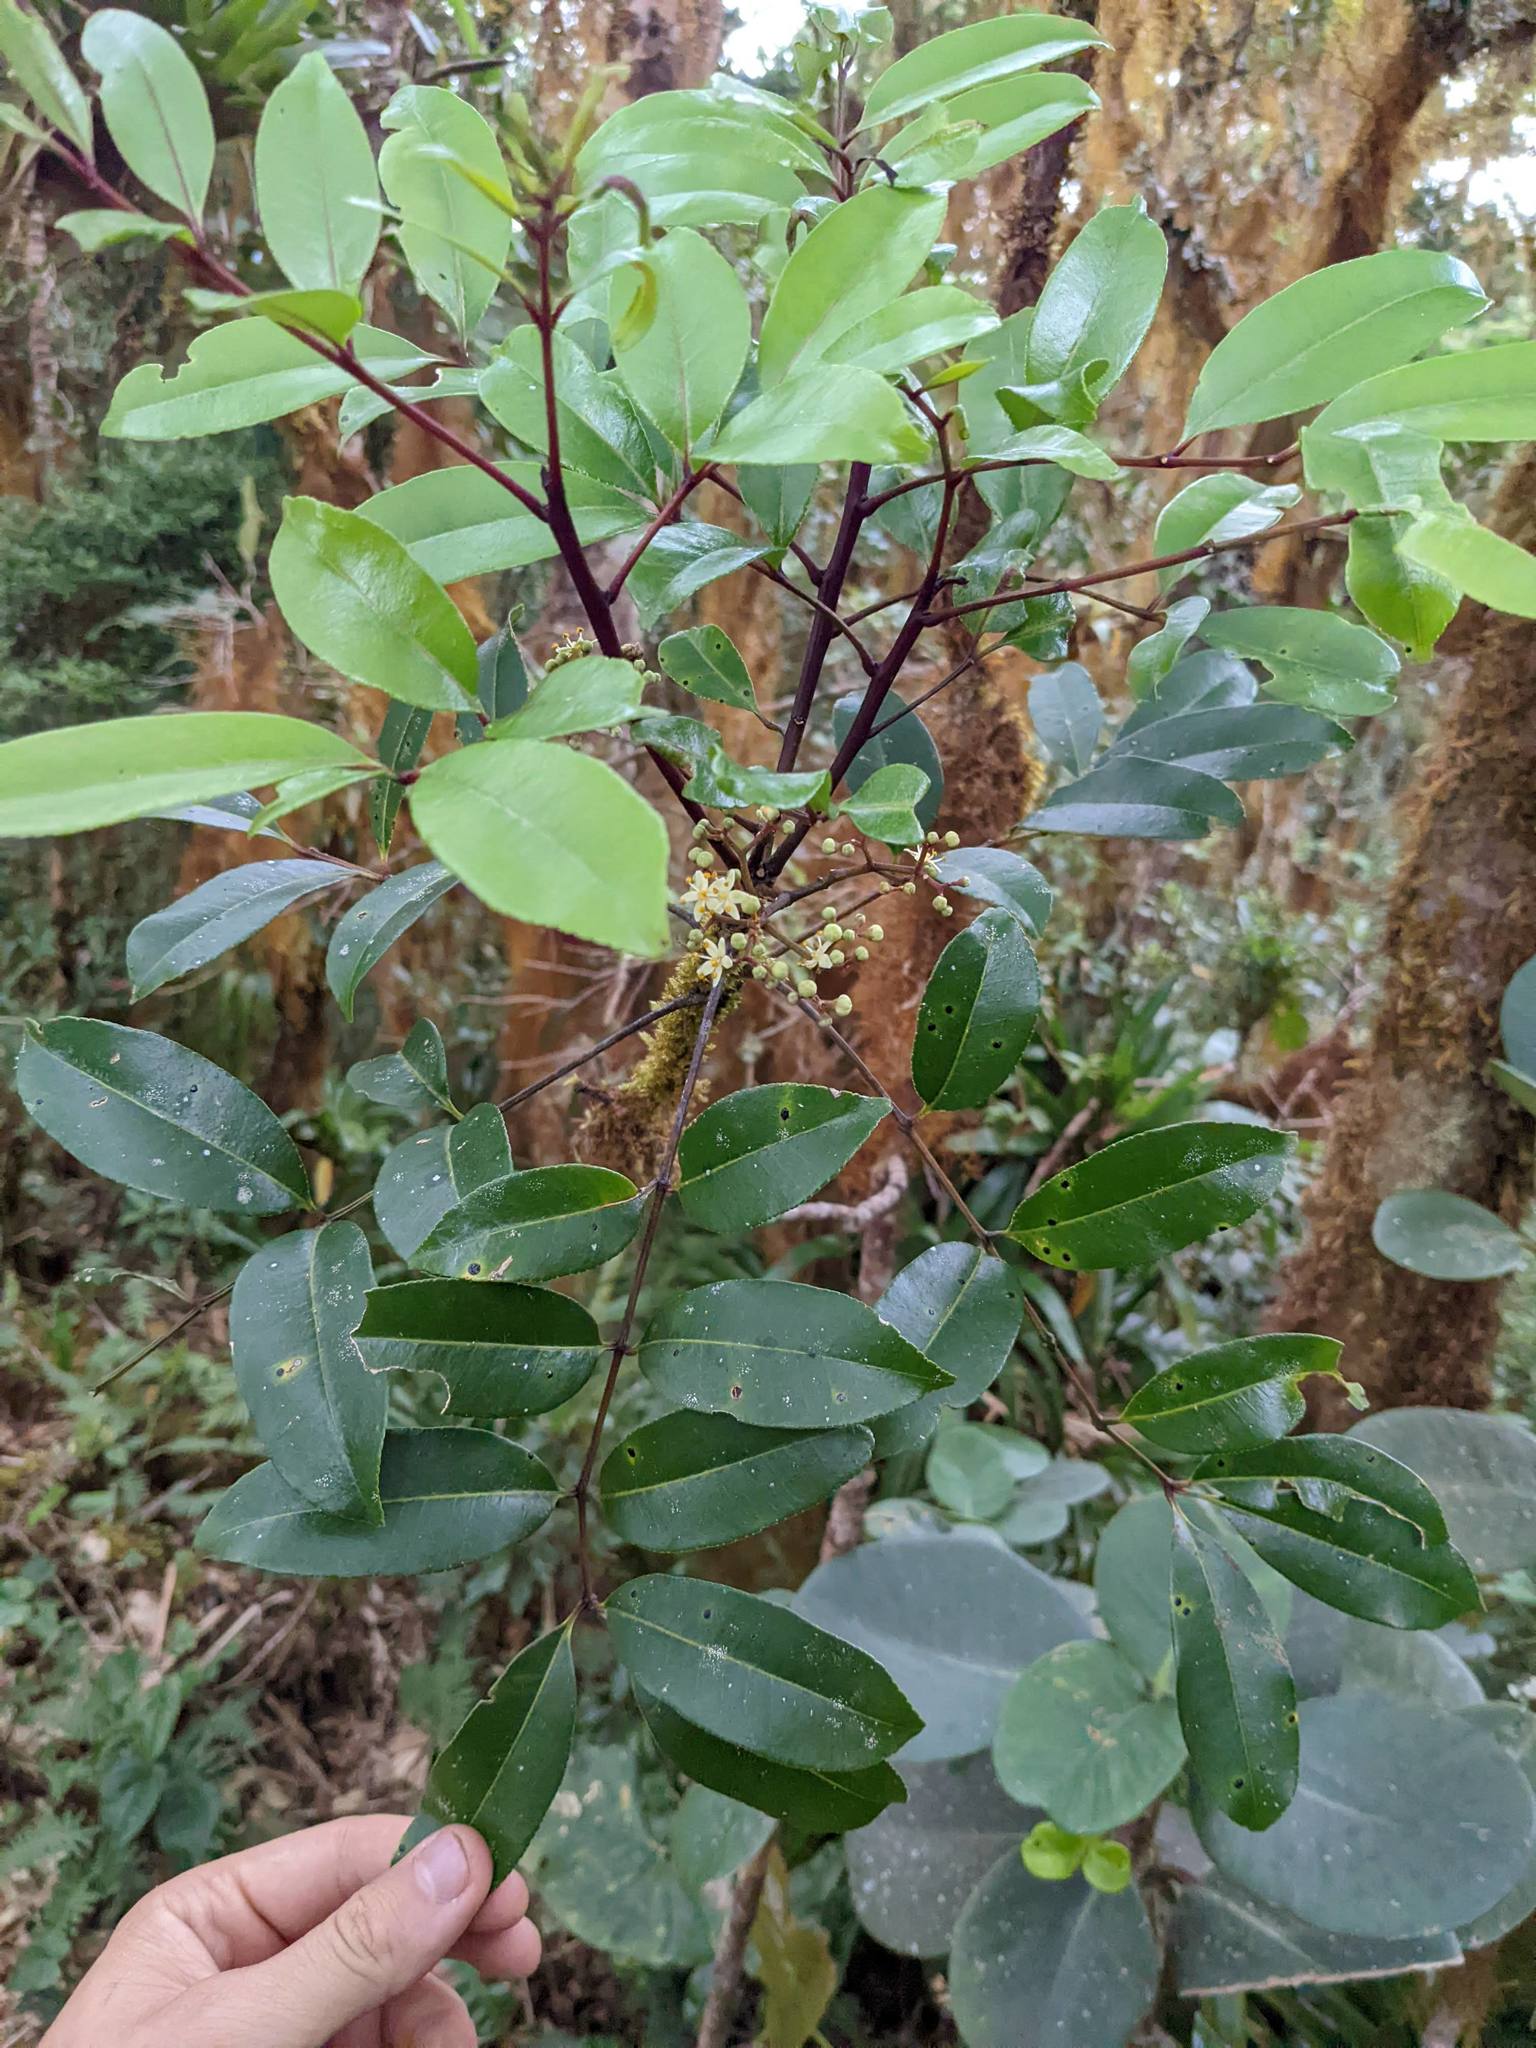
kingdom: Plantae
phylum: Tracheophyta
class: Magnoliopsida
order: Sapindales
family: Rutaceae
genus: Zanthoxylum
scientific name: Zanthoxylum melanostictum
